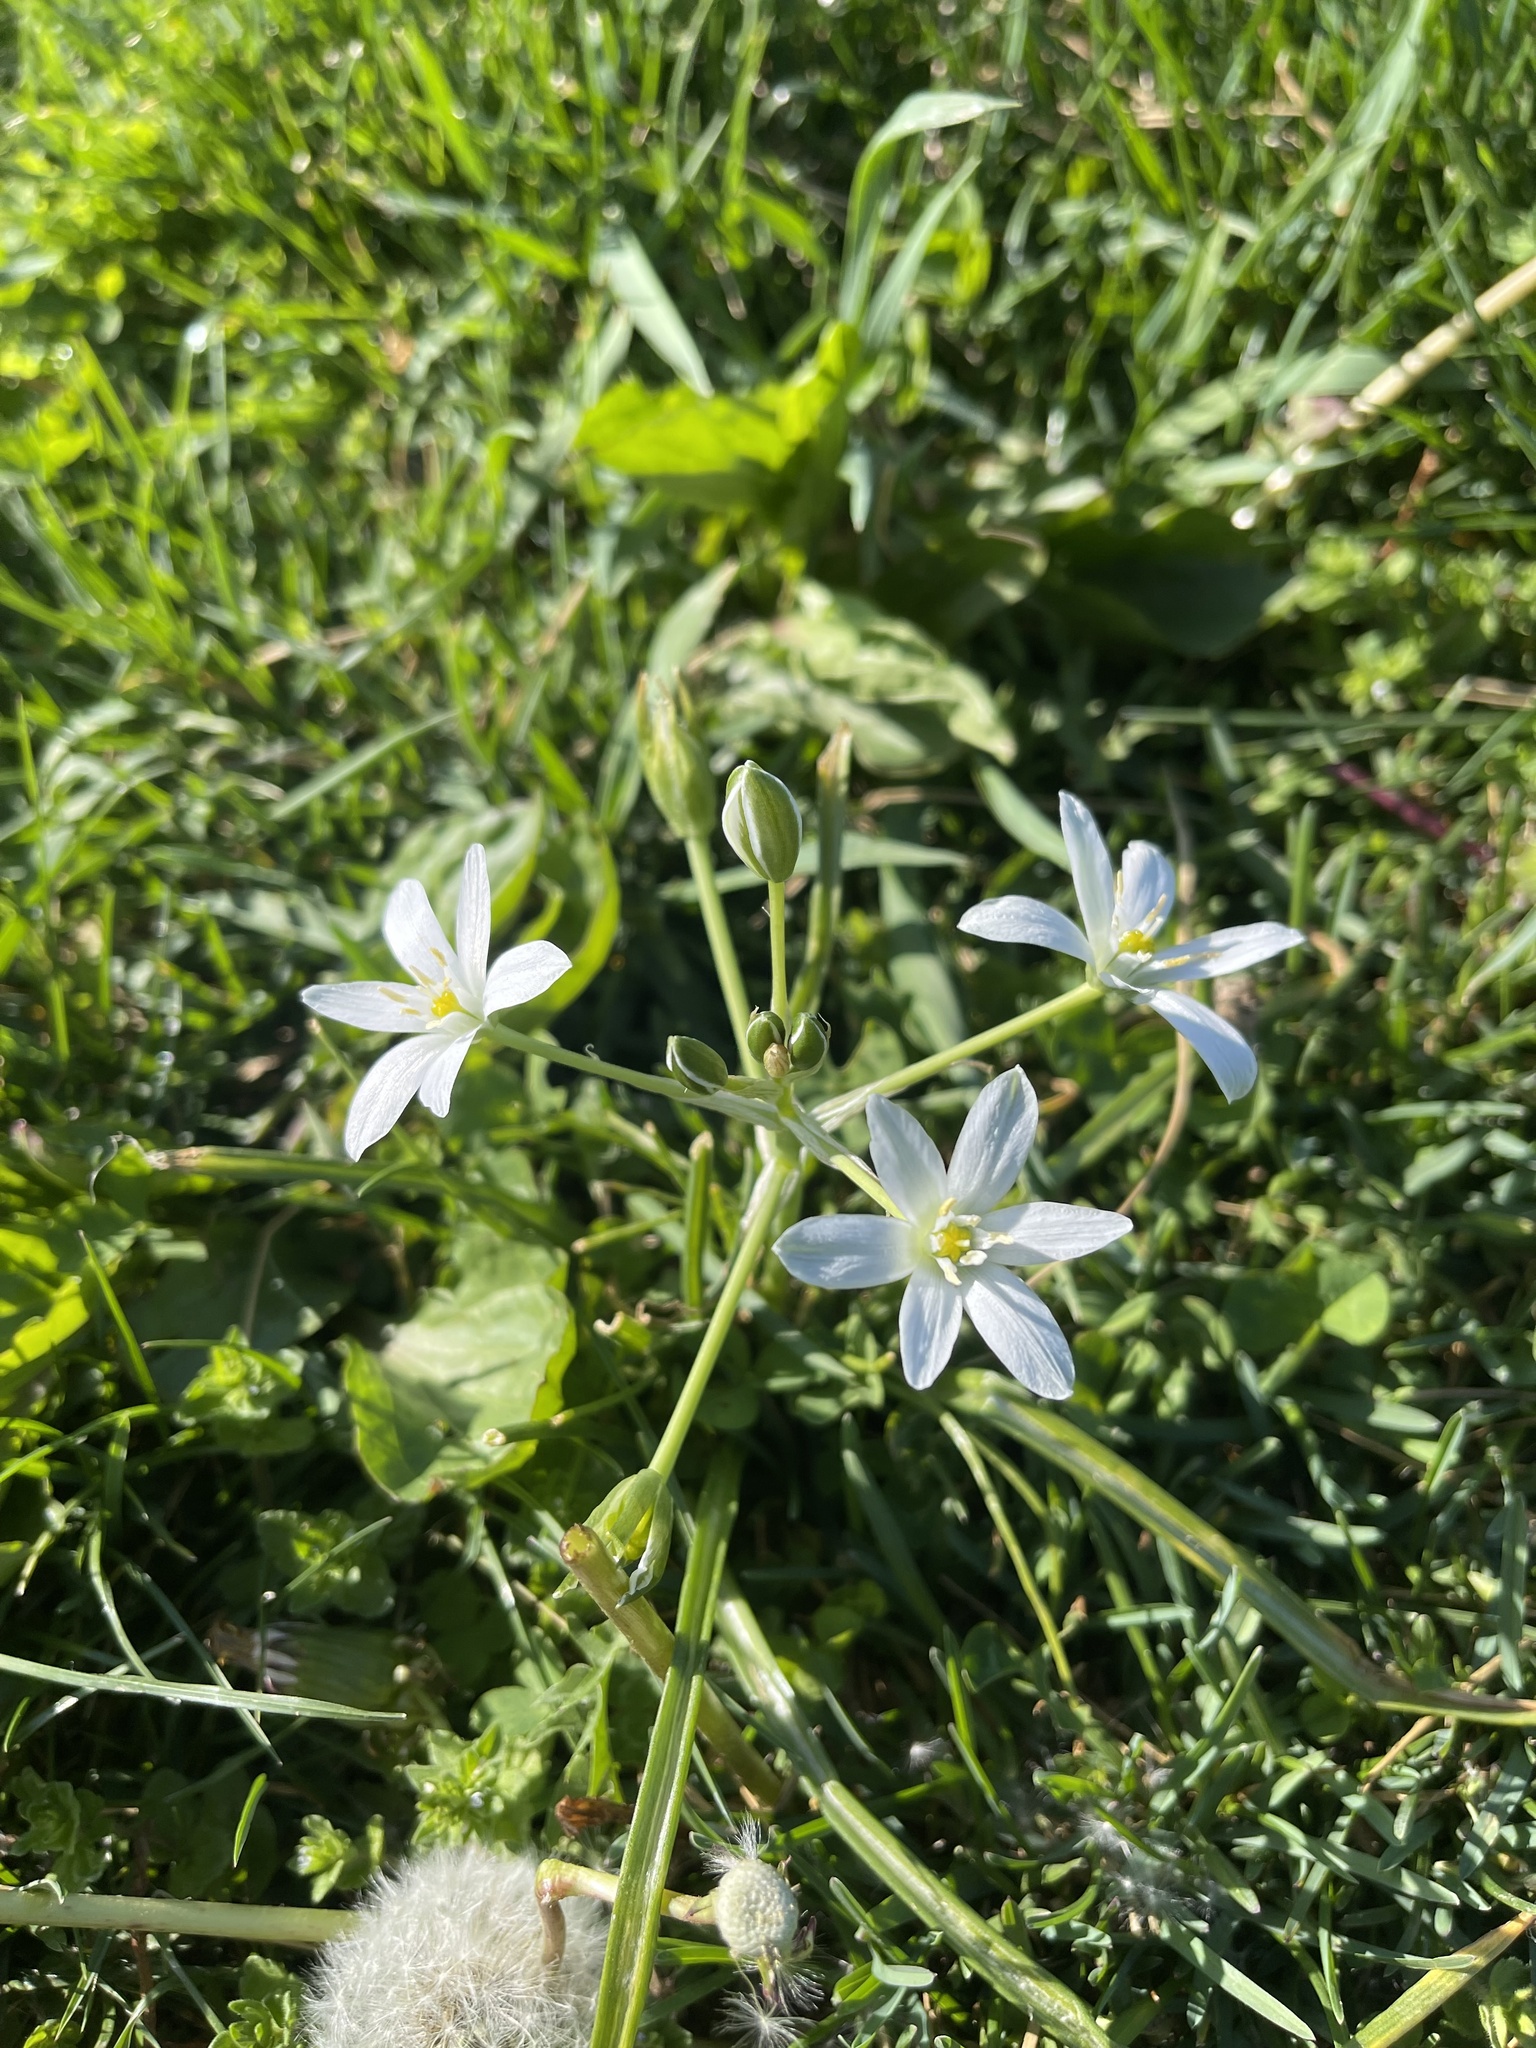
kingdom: Plantae
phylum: Tracheophyta
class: Liliopsida
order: Asparagales
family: Asparagaceae
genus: Ornithogalum
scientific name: Ornithogalum umbellatum
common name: Garden star-of-bethlehem
